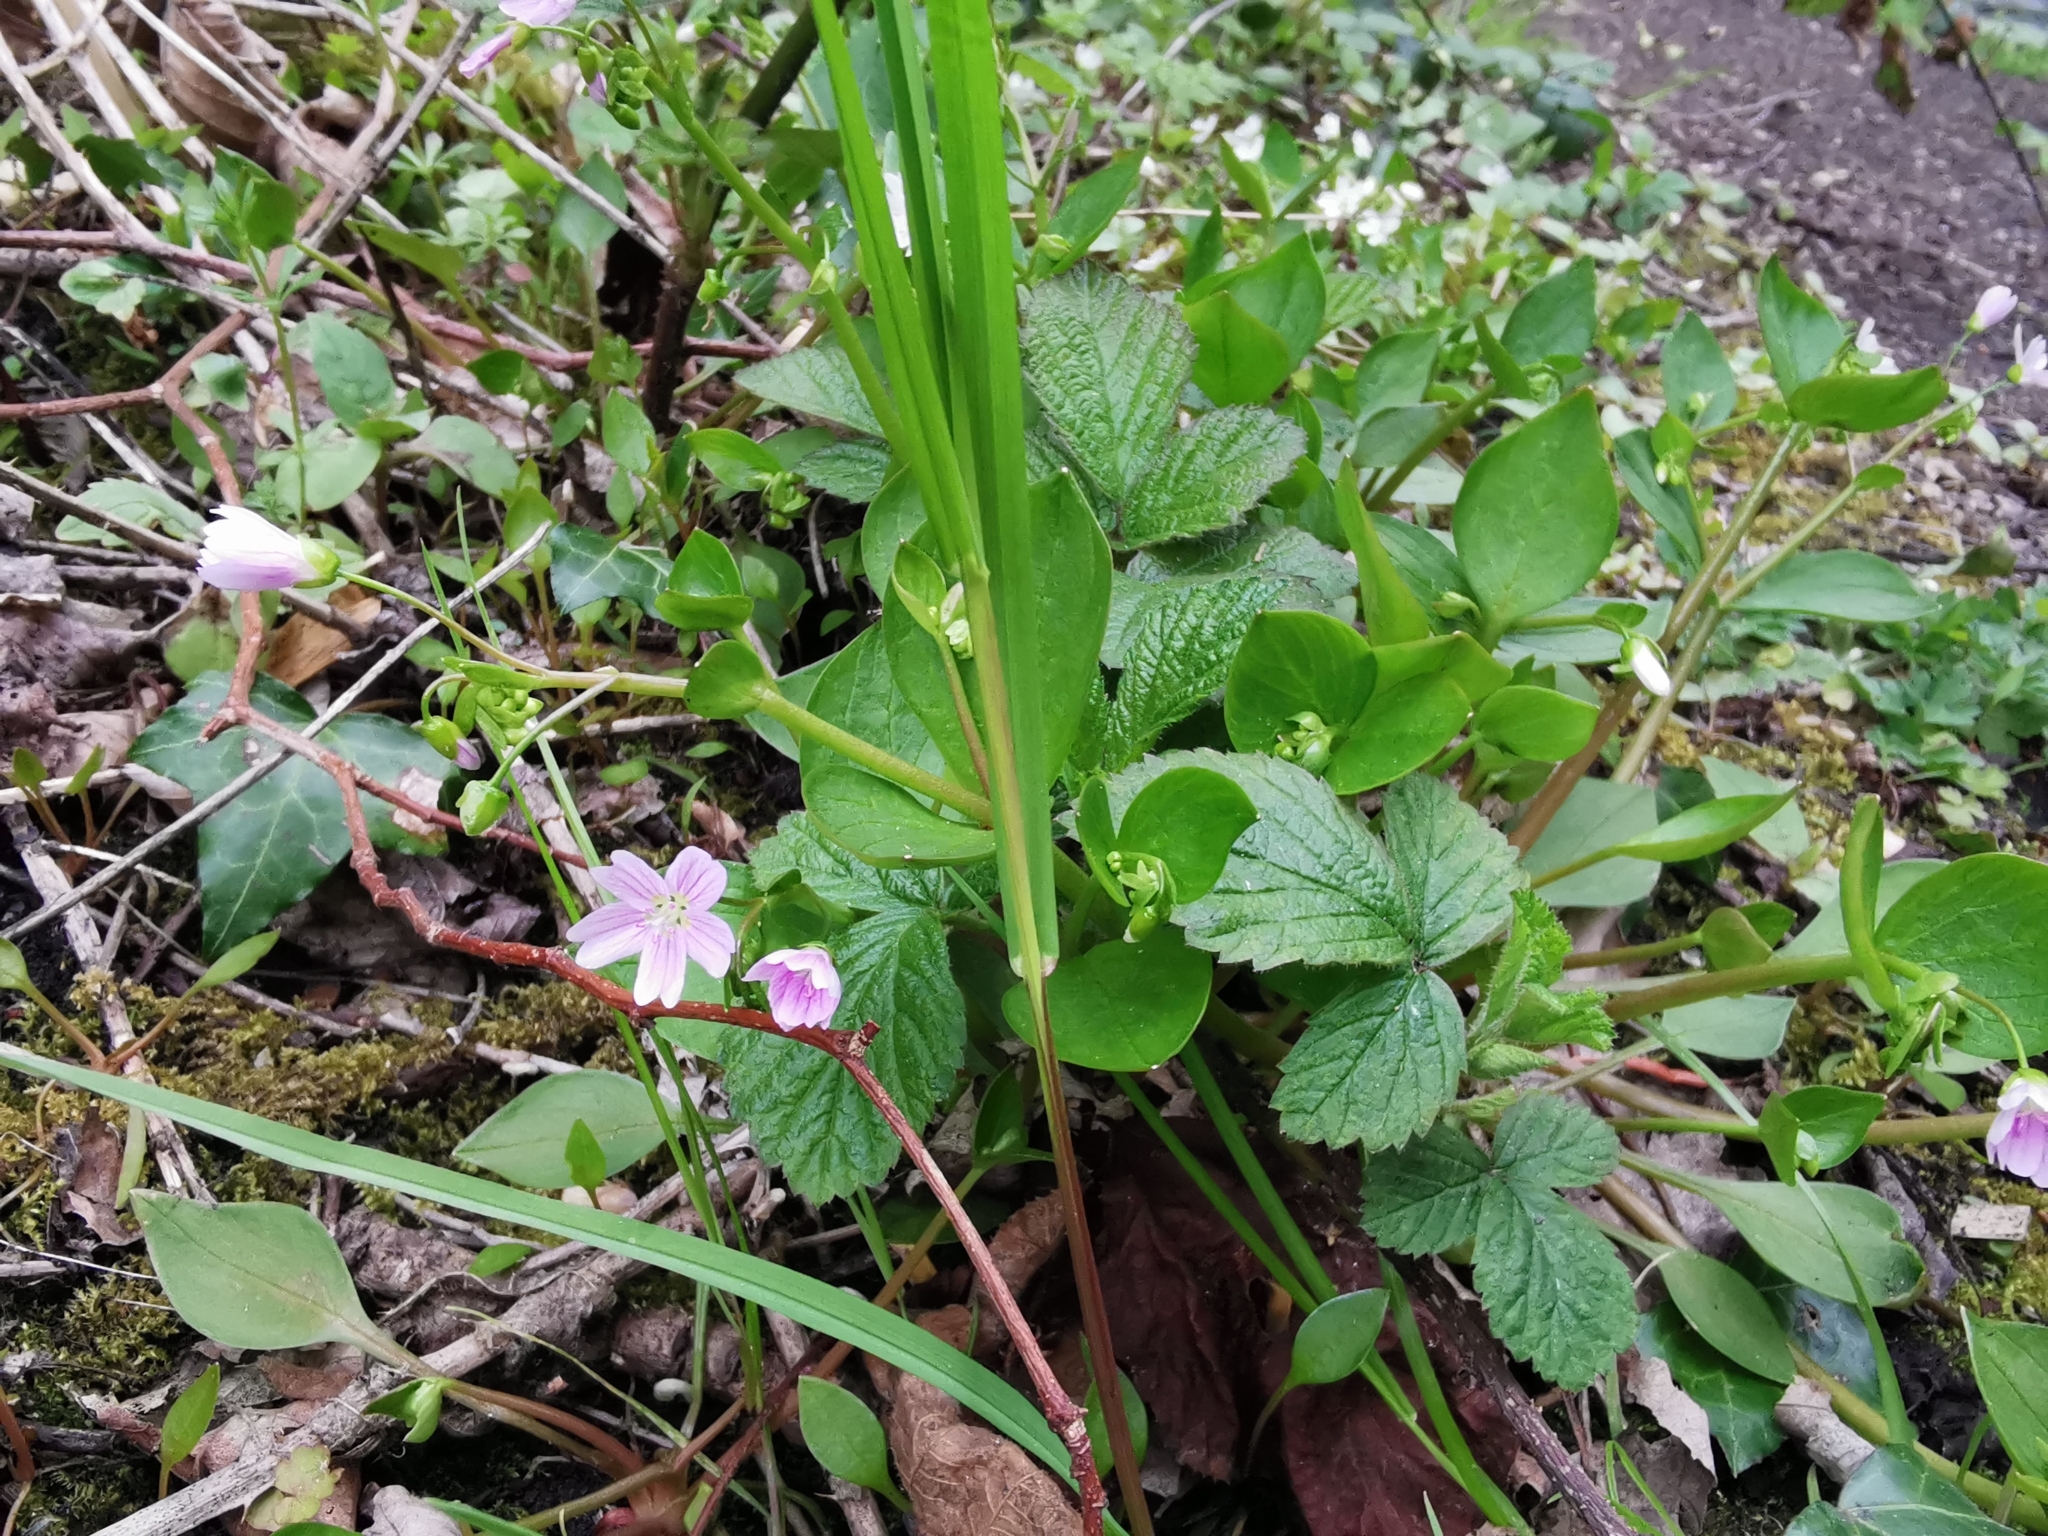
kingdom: Plantae
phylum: Tracheophyta
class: Magnoliopsida
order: Caryophyllales
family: Montiaceae
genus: Claytonia
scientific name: Claytonia sibirica
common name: Pink purslane
